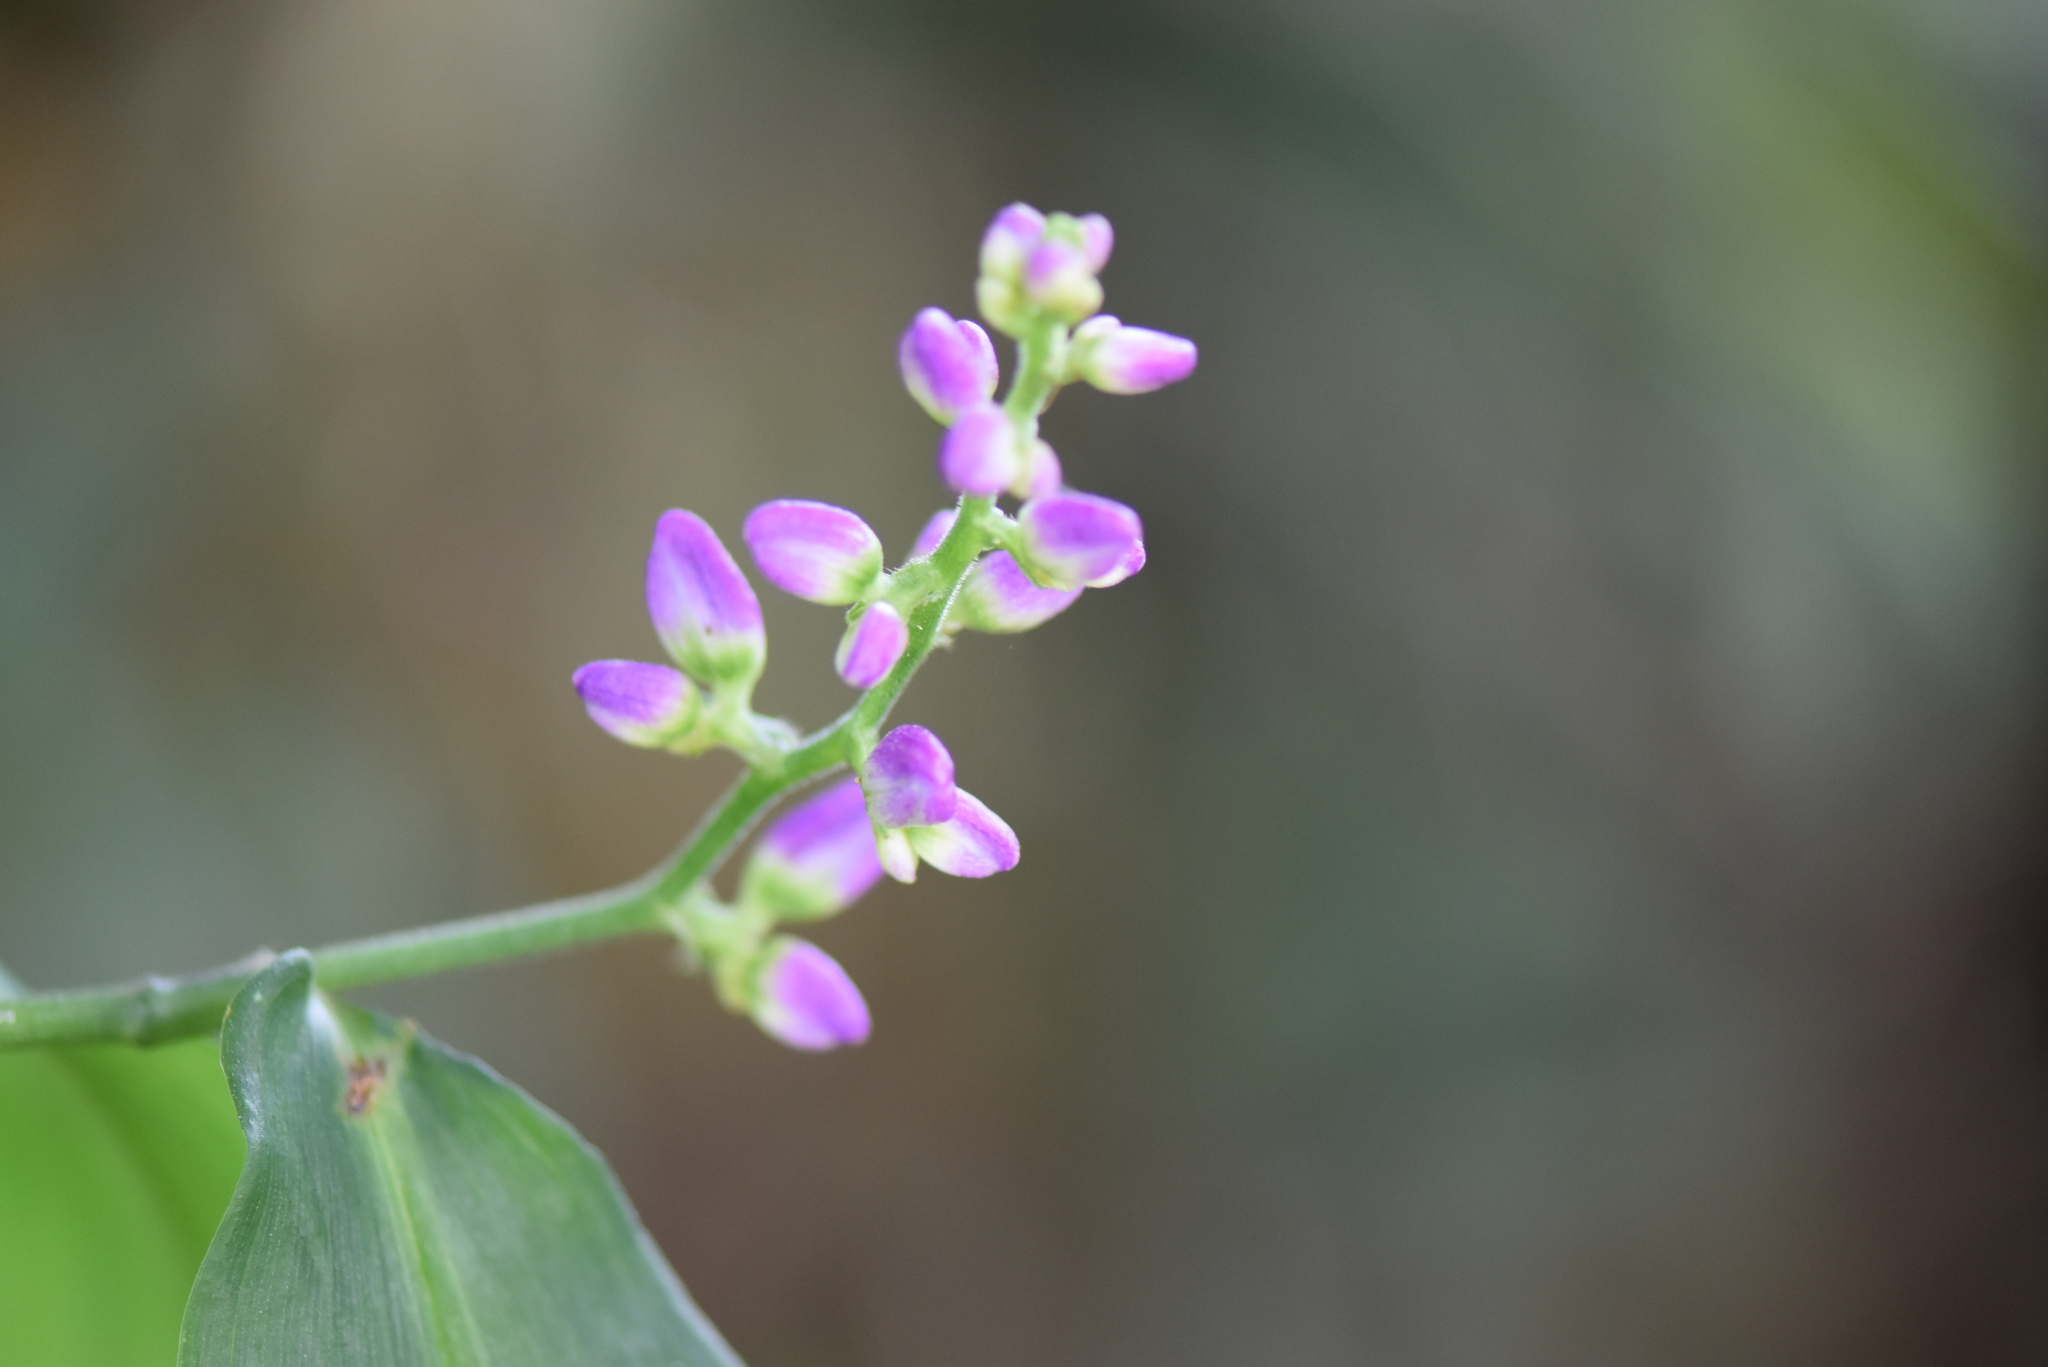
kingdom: Plantae
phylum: Tracheophyta
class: Liliopsida
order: Commelinales
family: Commelinaceae
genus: Dichorisandra
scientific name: Dichorisandra hexandra
